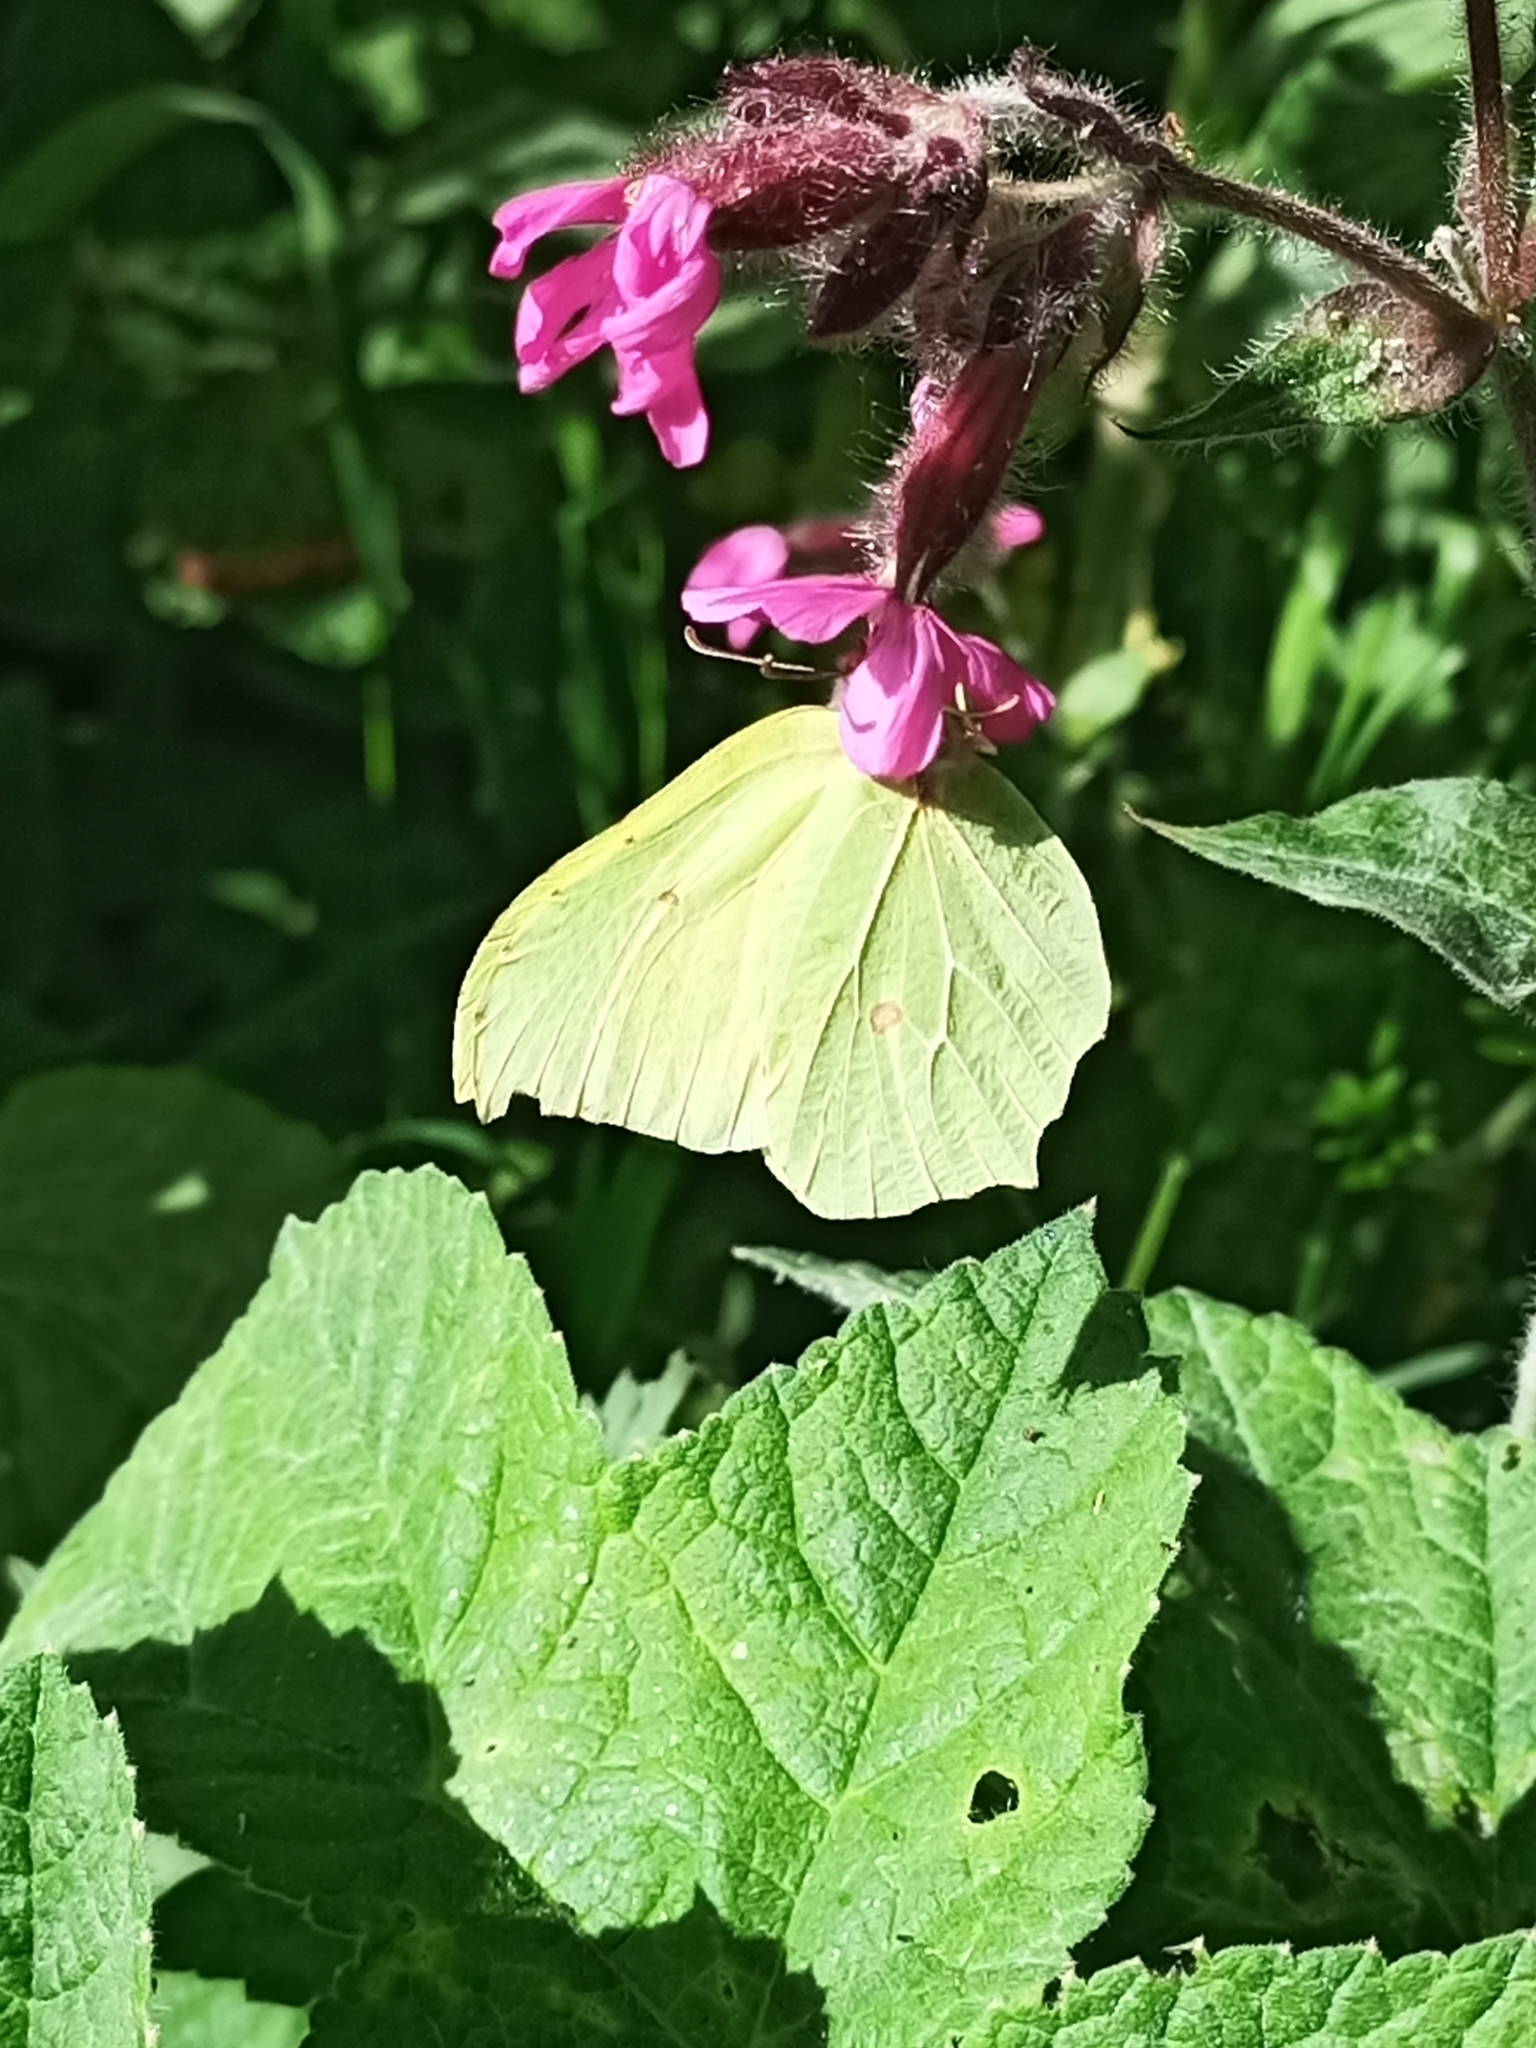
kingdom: Animalia
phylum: Arthropoda
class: Insecta
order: Lepidoptera
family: Pieridae
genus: Gonepteryx
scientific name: Gonepteryx rhamni
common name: Brimstone
